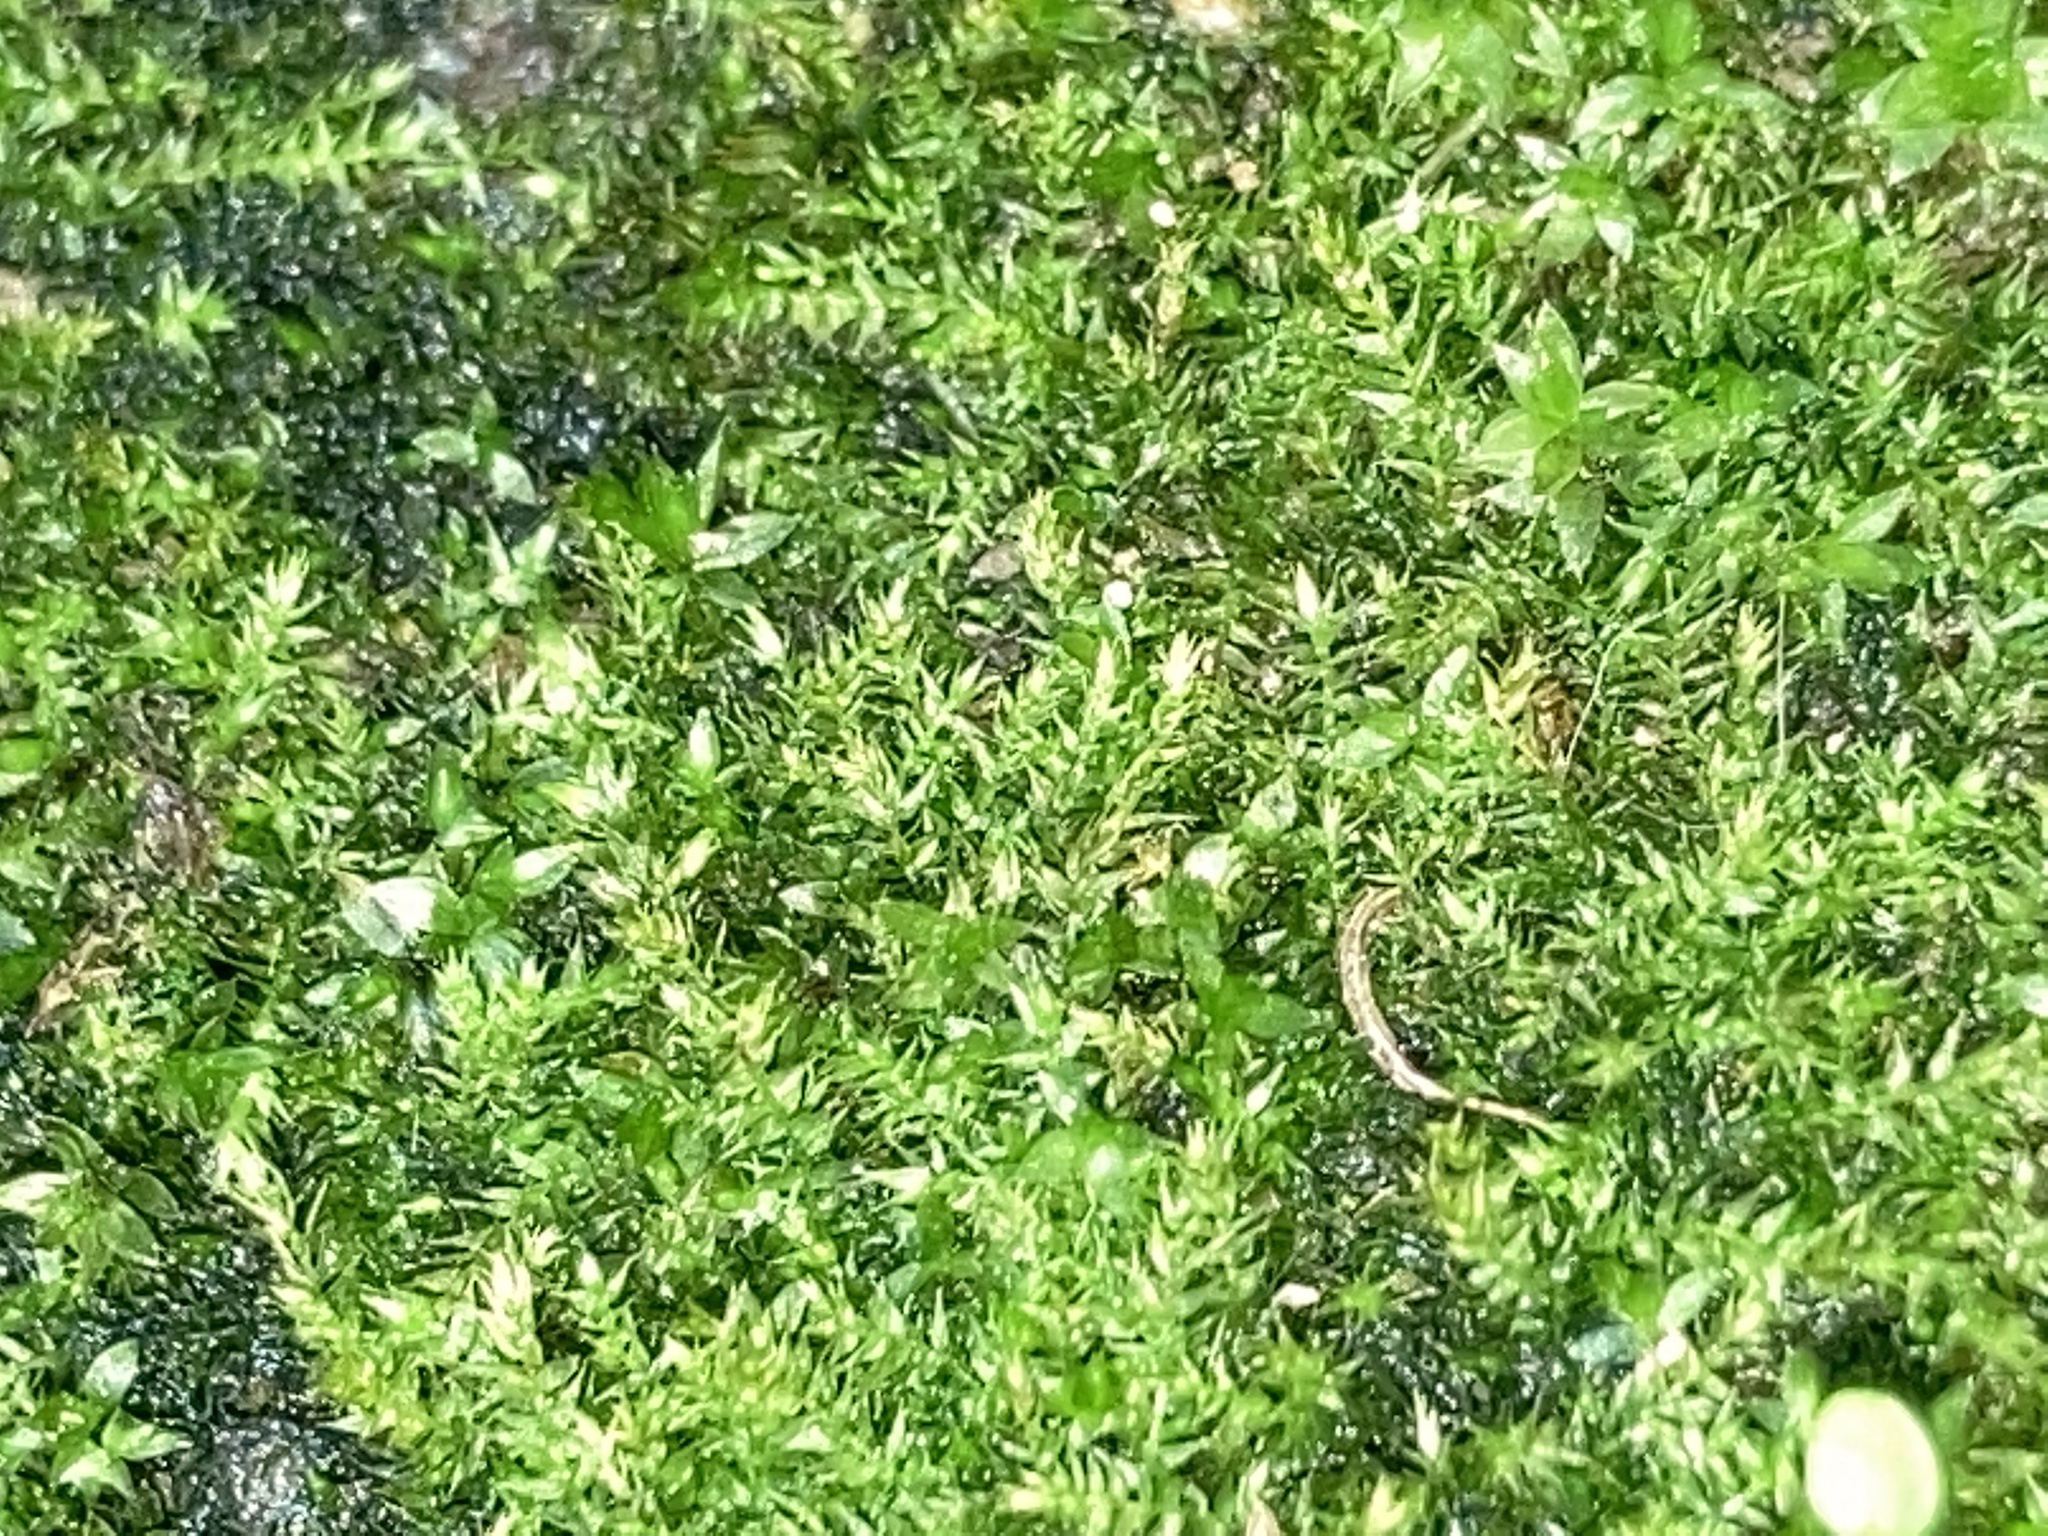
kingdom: Plantae
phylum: Bryophyta
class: Bryopsida
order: Hypnales
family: Amblystegiaceae
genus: Hygroamblystegium
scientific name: Hygroamblystegium varium
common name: Willow feather-moss
